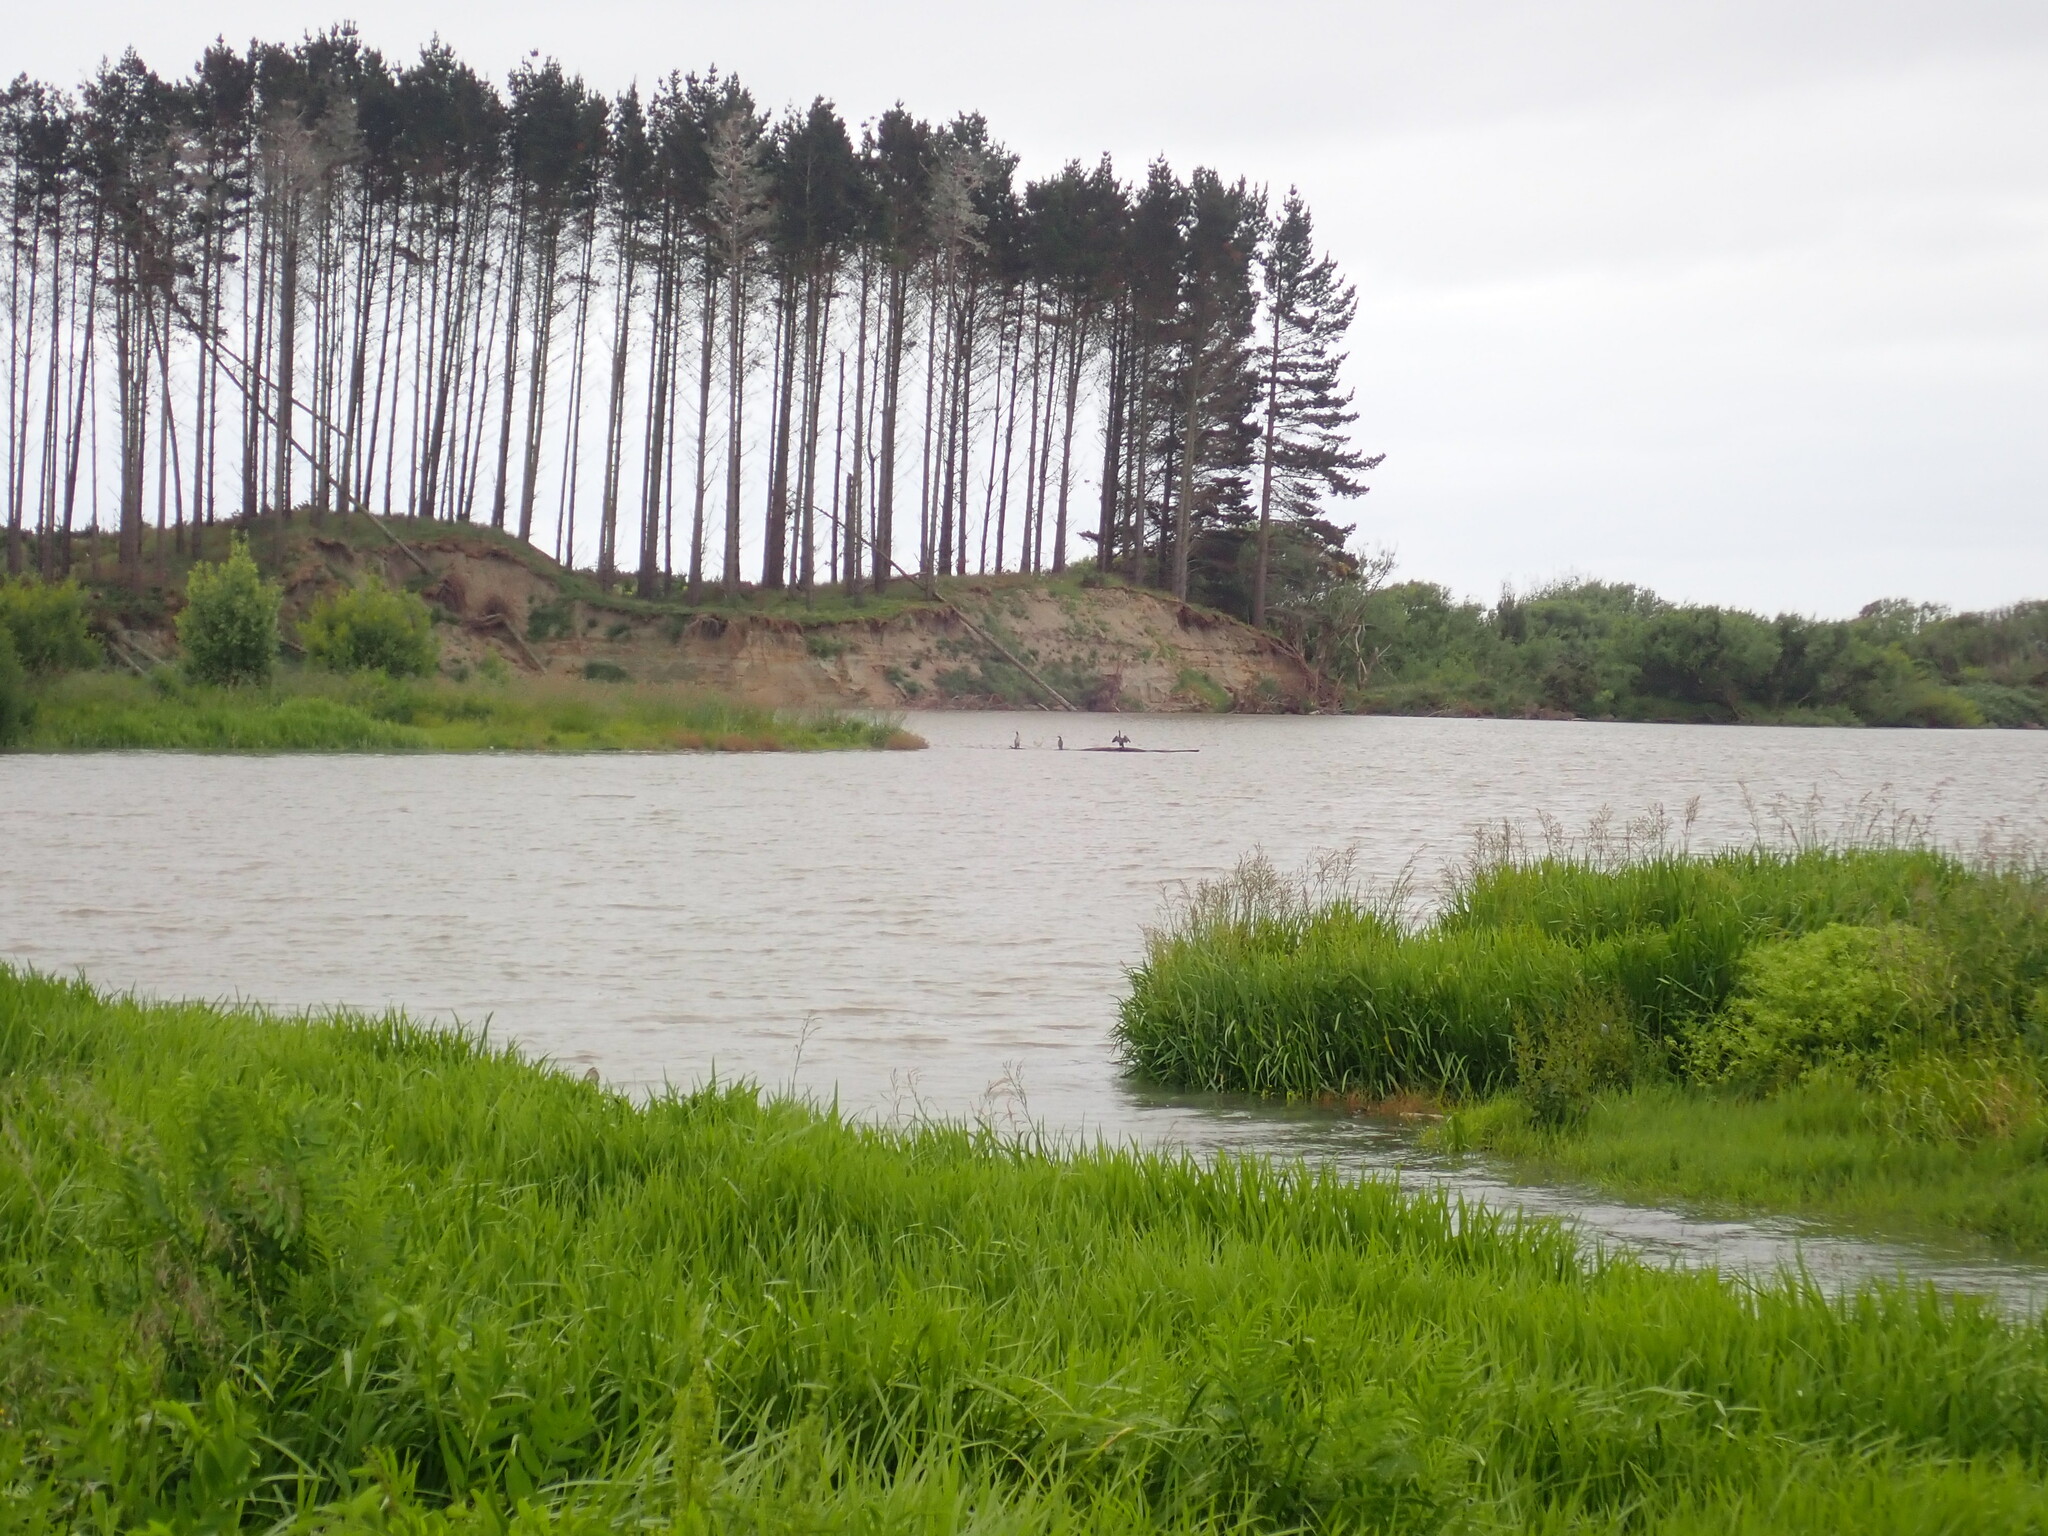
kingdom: Animalia
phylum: Chordata
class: Aves
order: Suliformes
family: Phalacrocoracidae
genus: Phalacrocorax
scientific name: Phalacrocorax varius
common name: Pied cormorant
